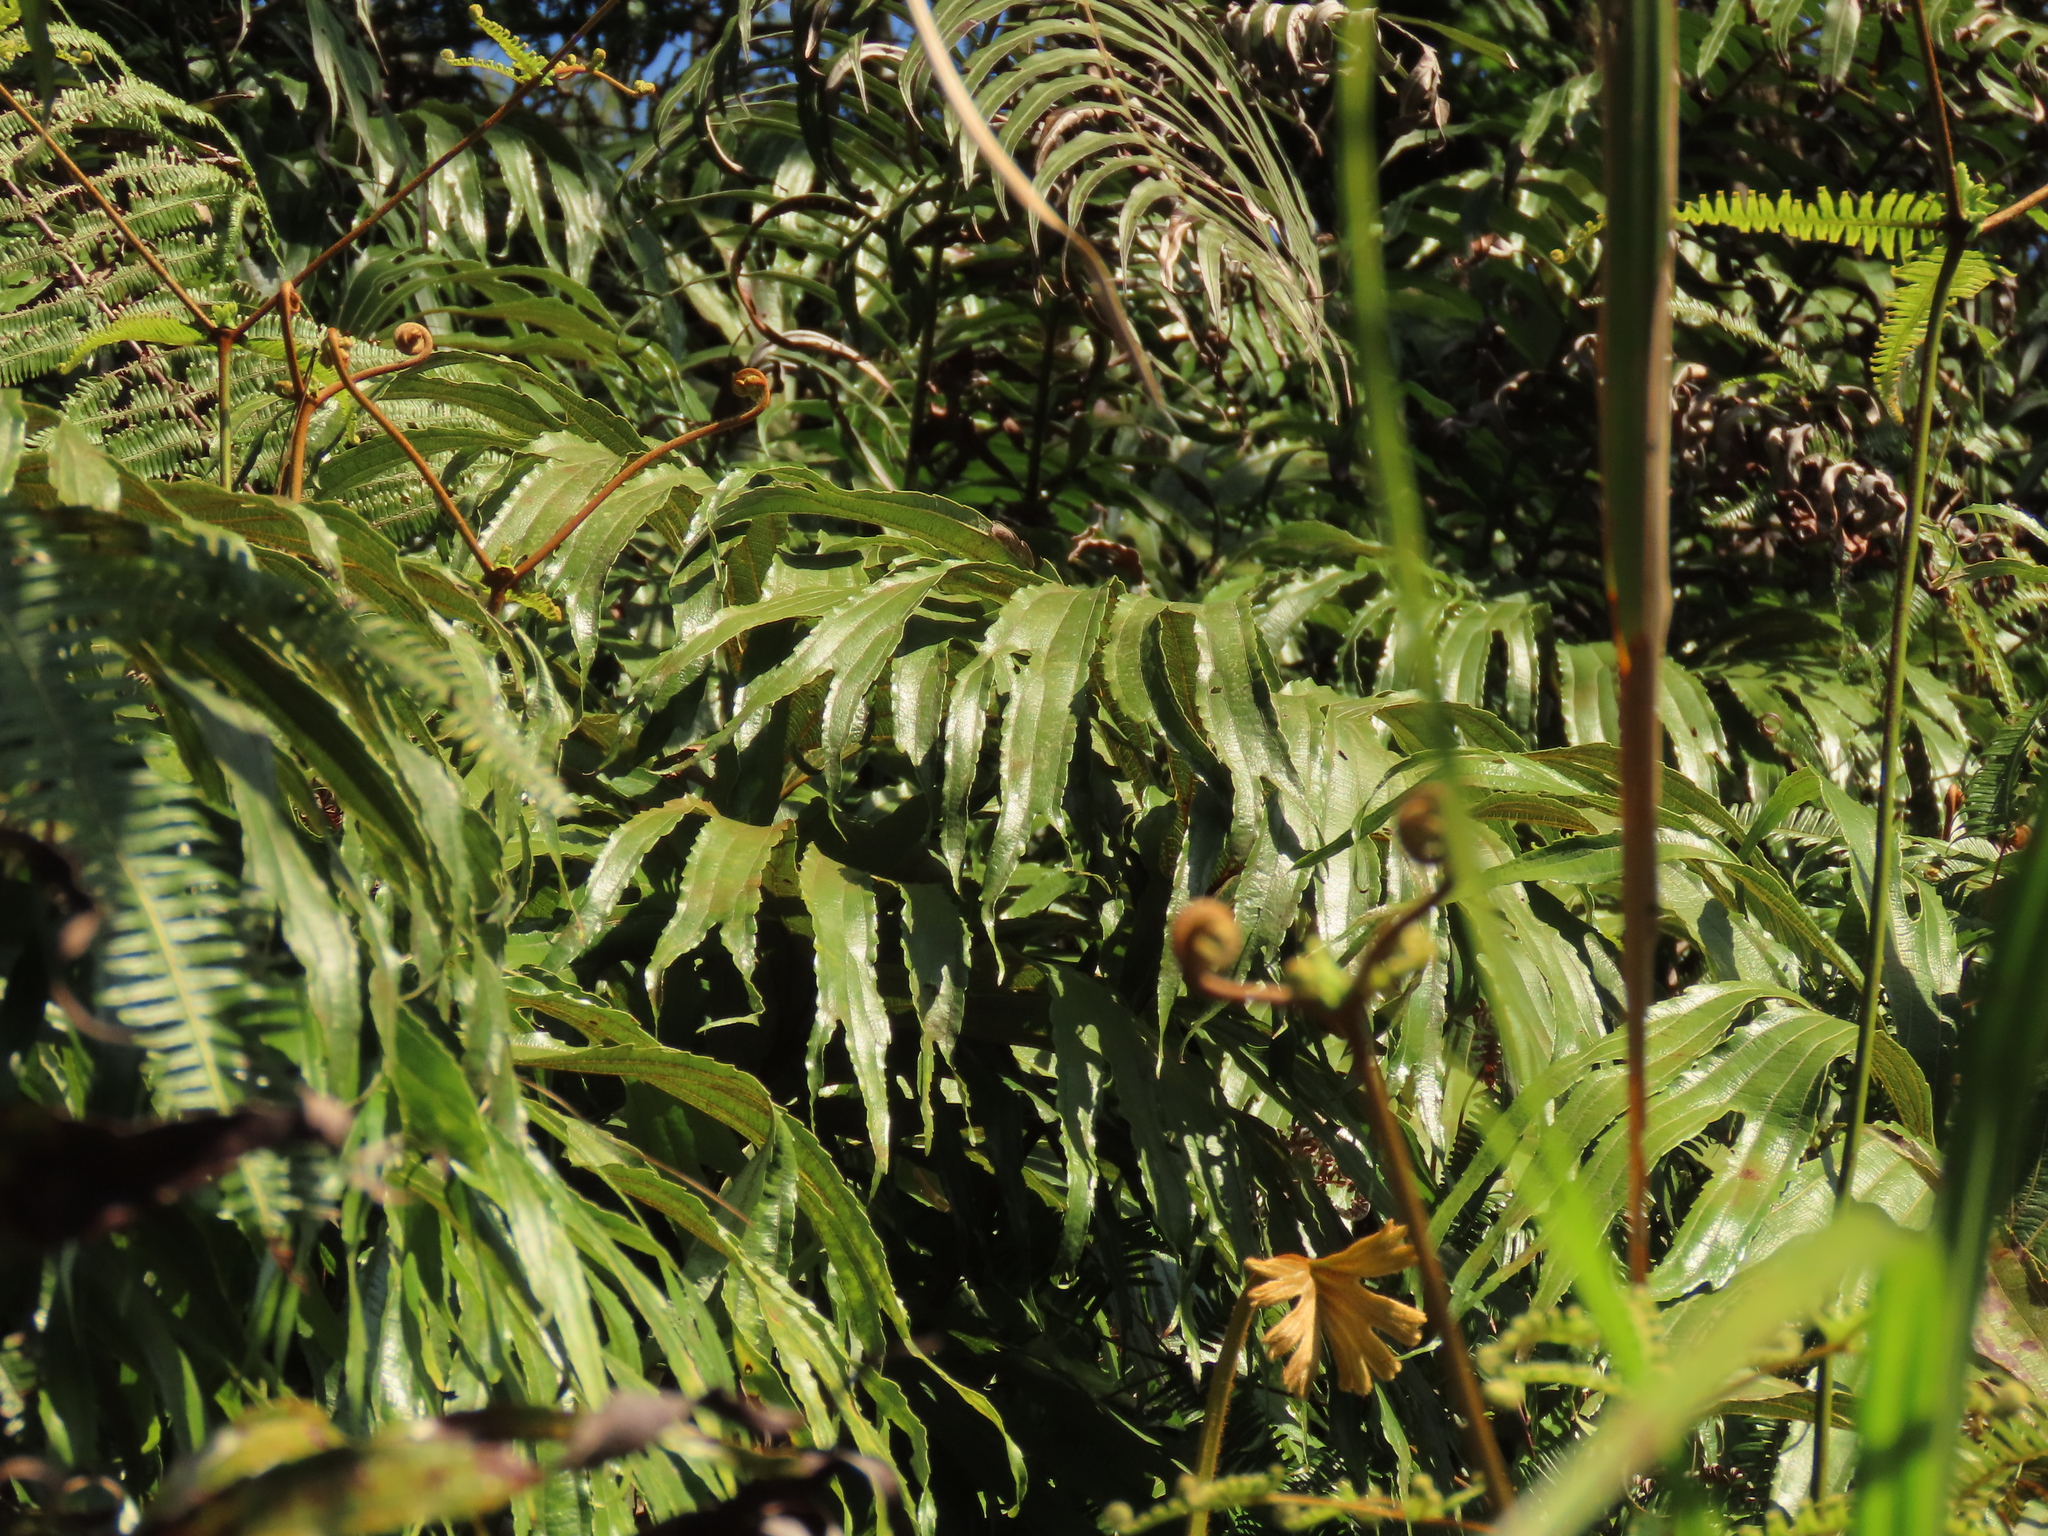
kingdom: Plantae
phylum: Tracheophyta
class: Polypodiopsida
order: Gleicheniales
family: Dipteridaceae
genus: Dipteris
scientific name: Dipteris conjugata
